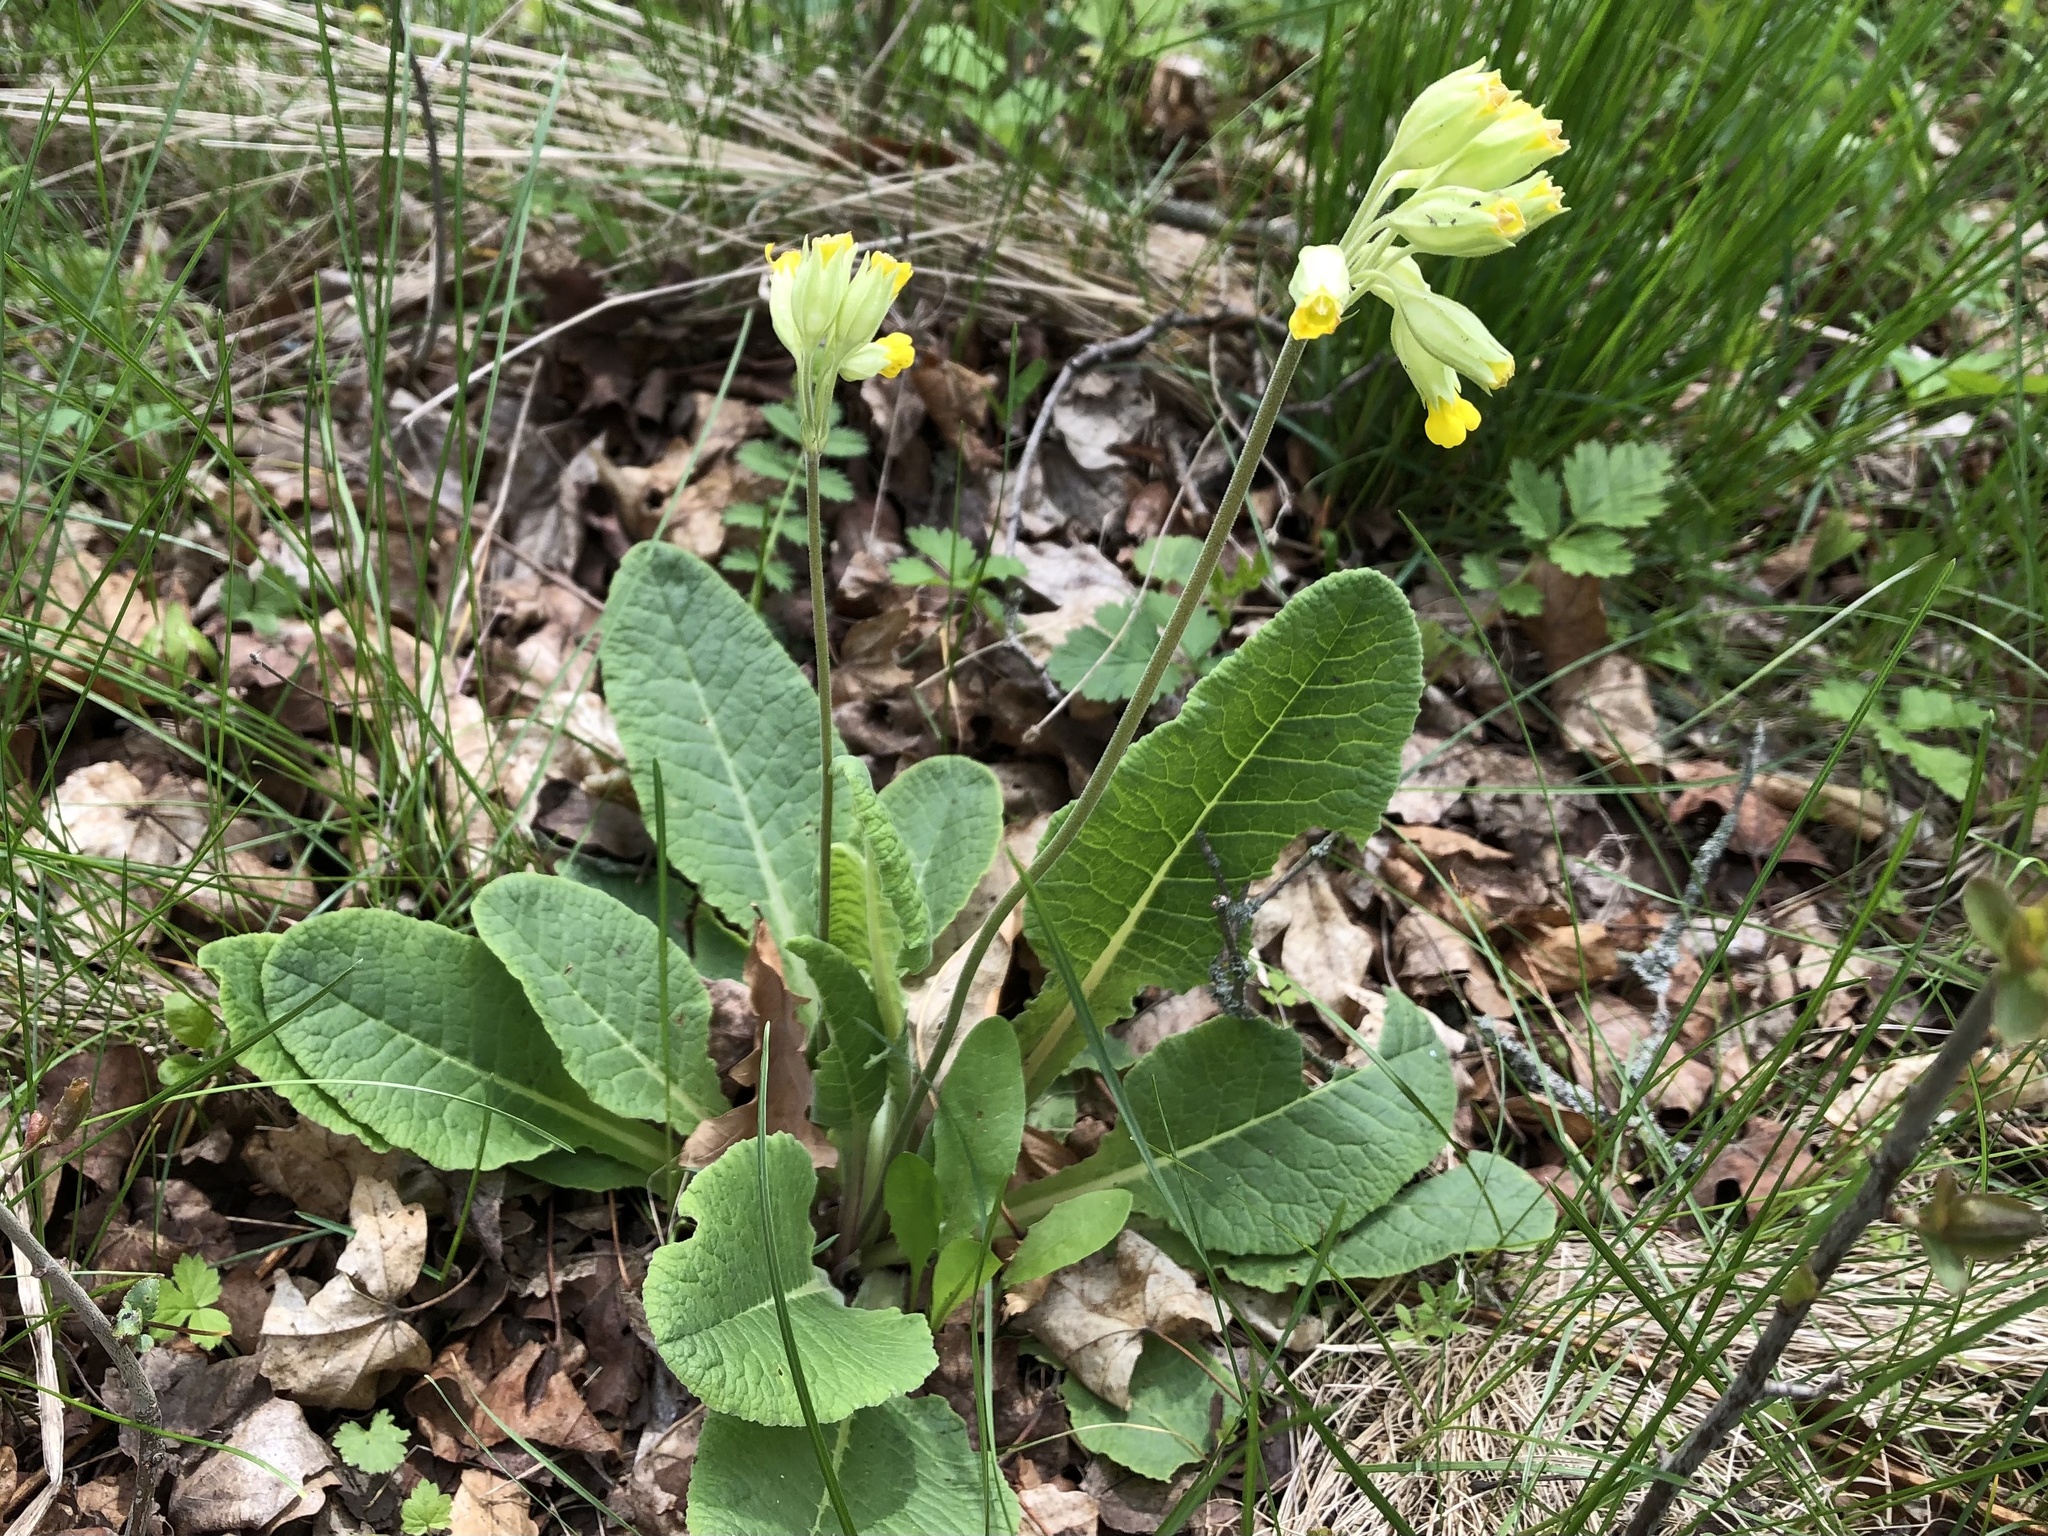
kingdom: Plantae
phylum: Tracheophyta
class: Magnoliopsida
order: Ericales
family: Primulaceae
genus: Primula
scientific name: Primula veris
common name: Cowslip
